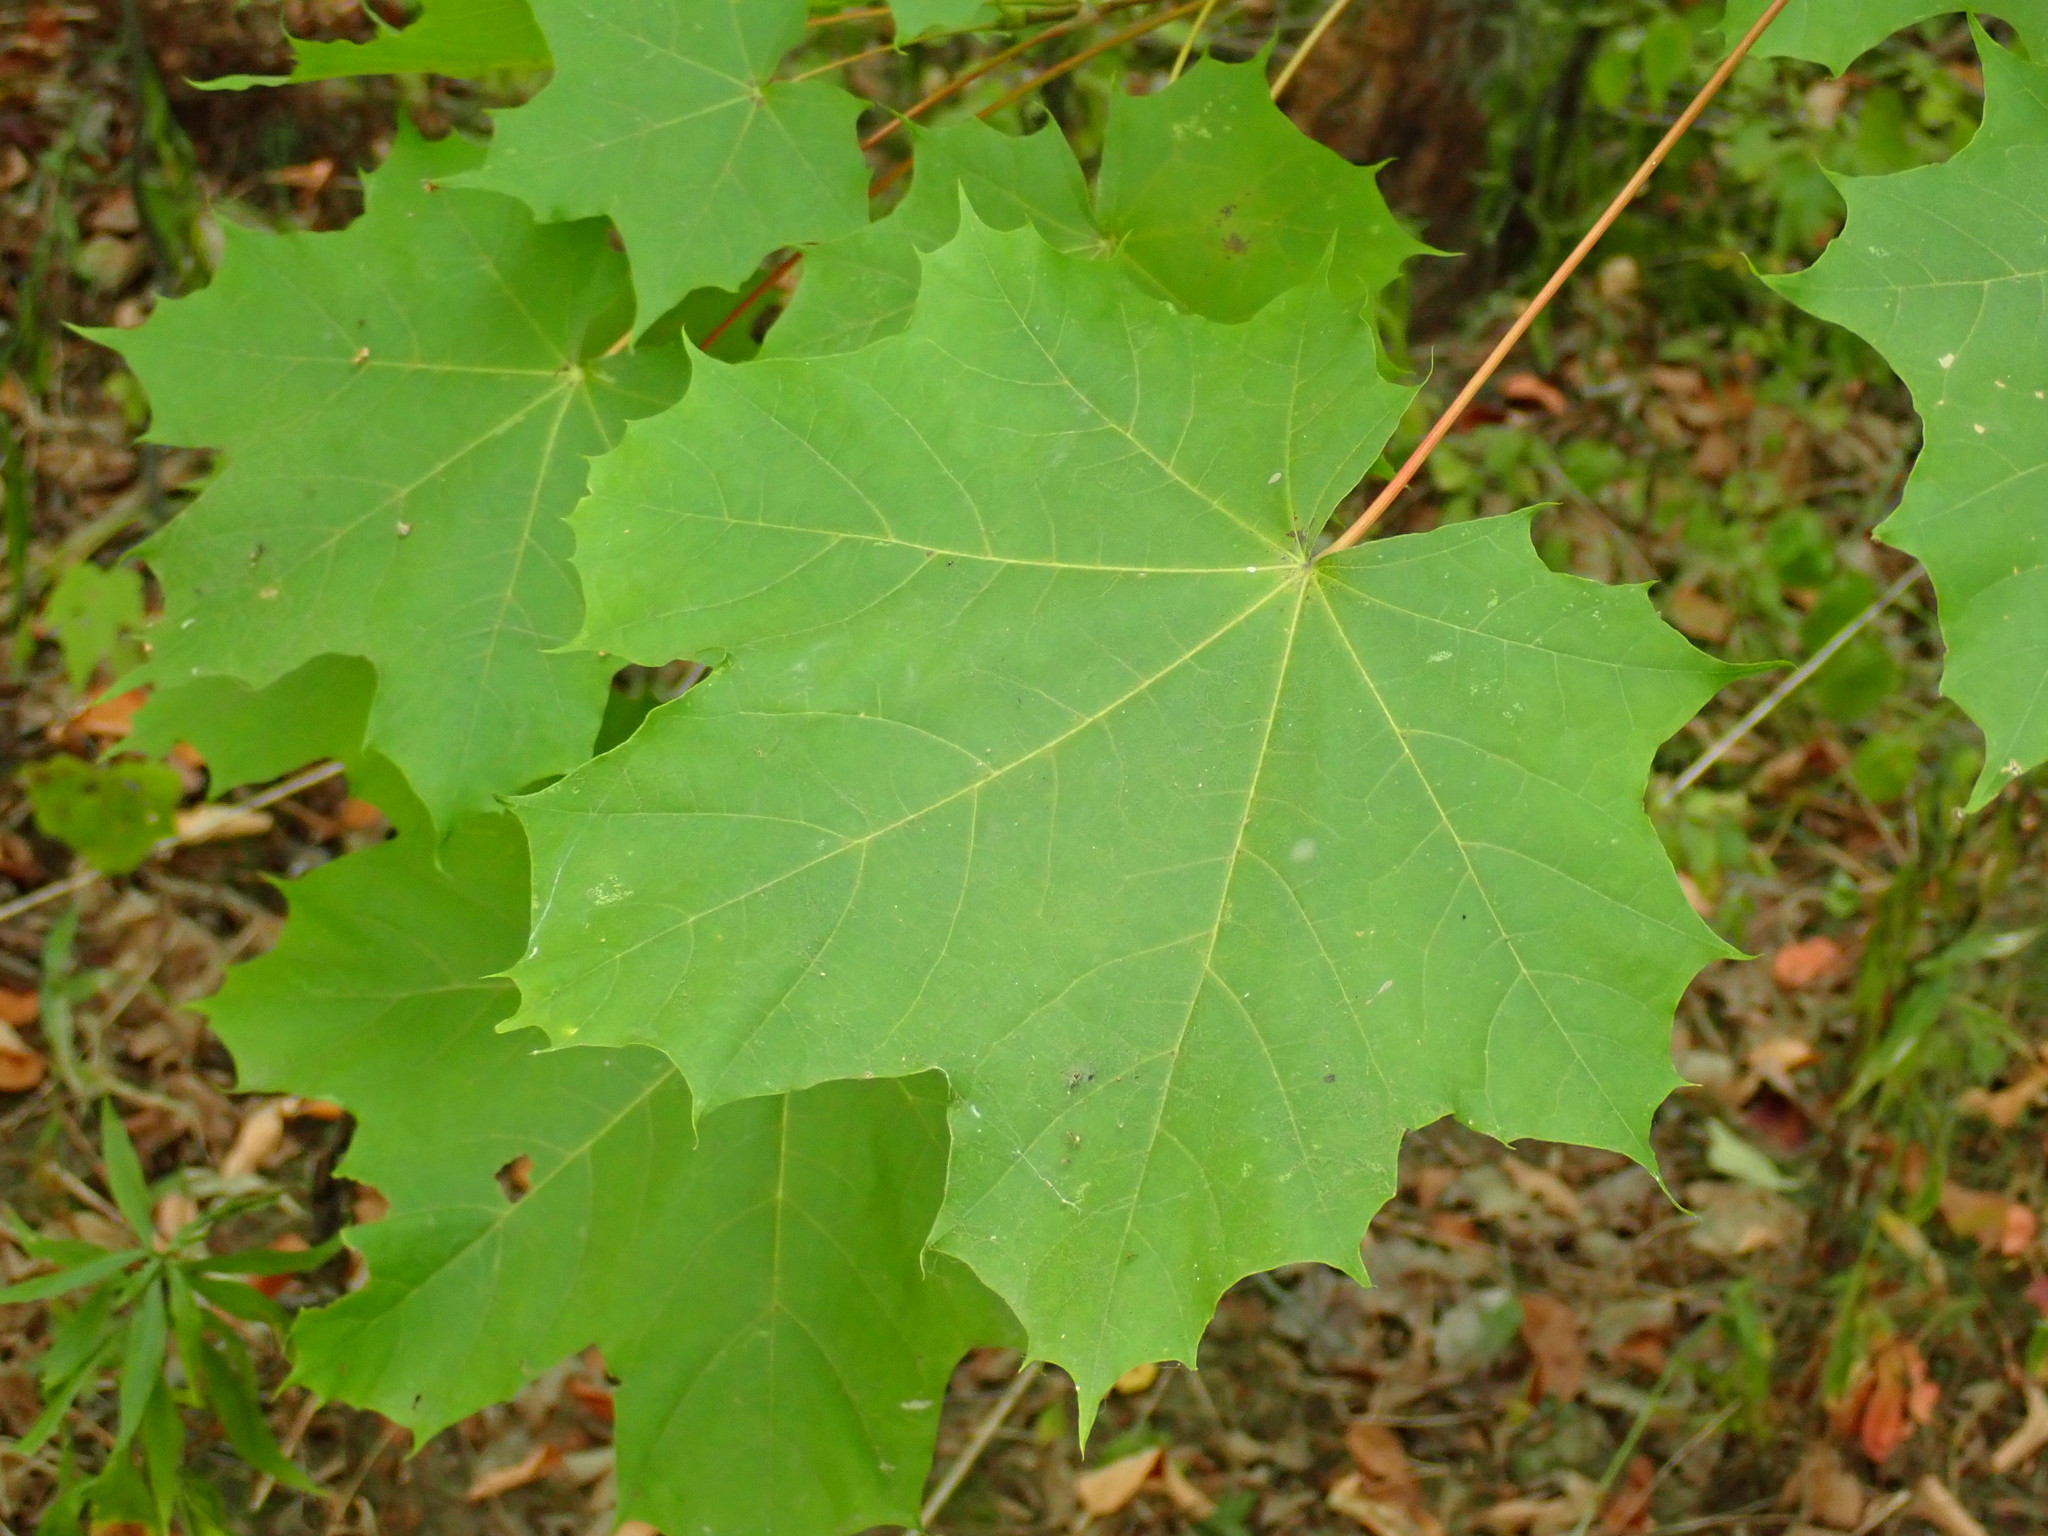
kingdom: Plantae
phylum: Tracheophyta
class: Magnoliopsida
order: Sapindales
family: Sapindaceae
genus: Acer
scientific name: Acer platanoides
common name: Norway maple
